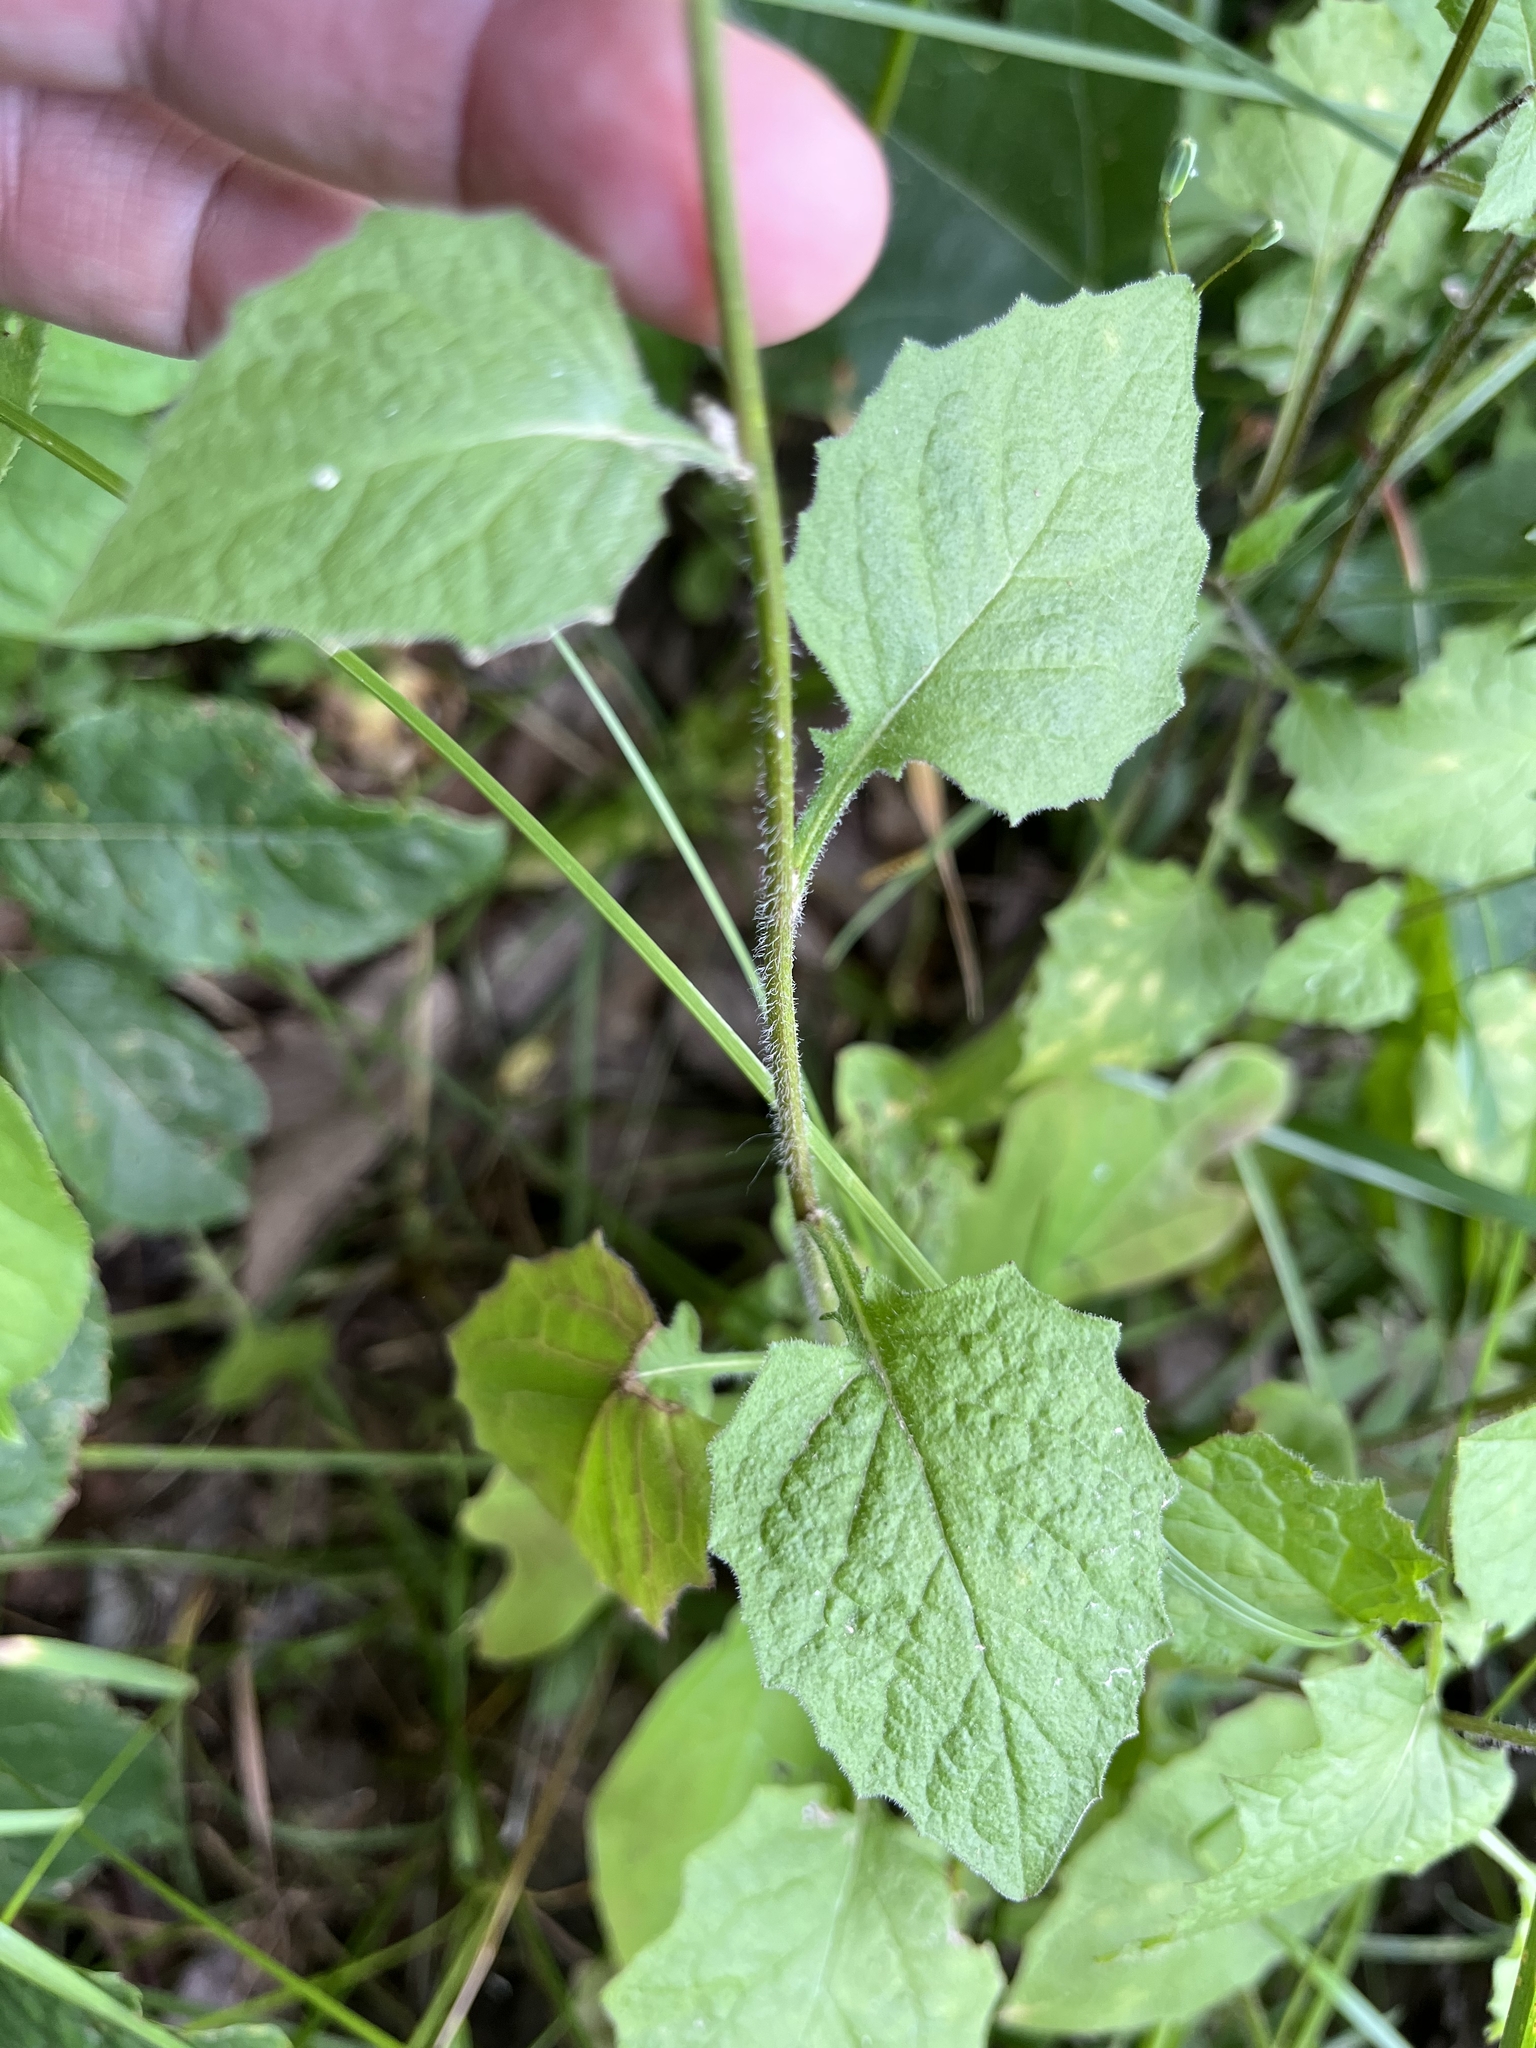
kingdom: Plantae
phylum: Tracheophyta
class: Magnoliopsida
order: Asterales
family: Asteraceae
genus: Lapsana
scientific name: Lapsana communis
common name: Nipplewort
